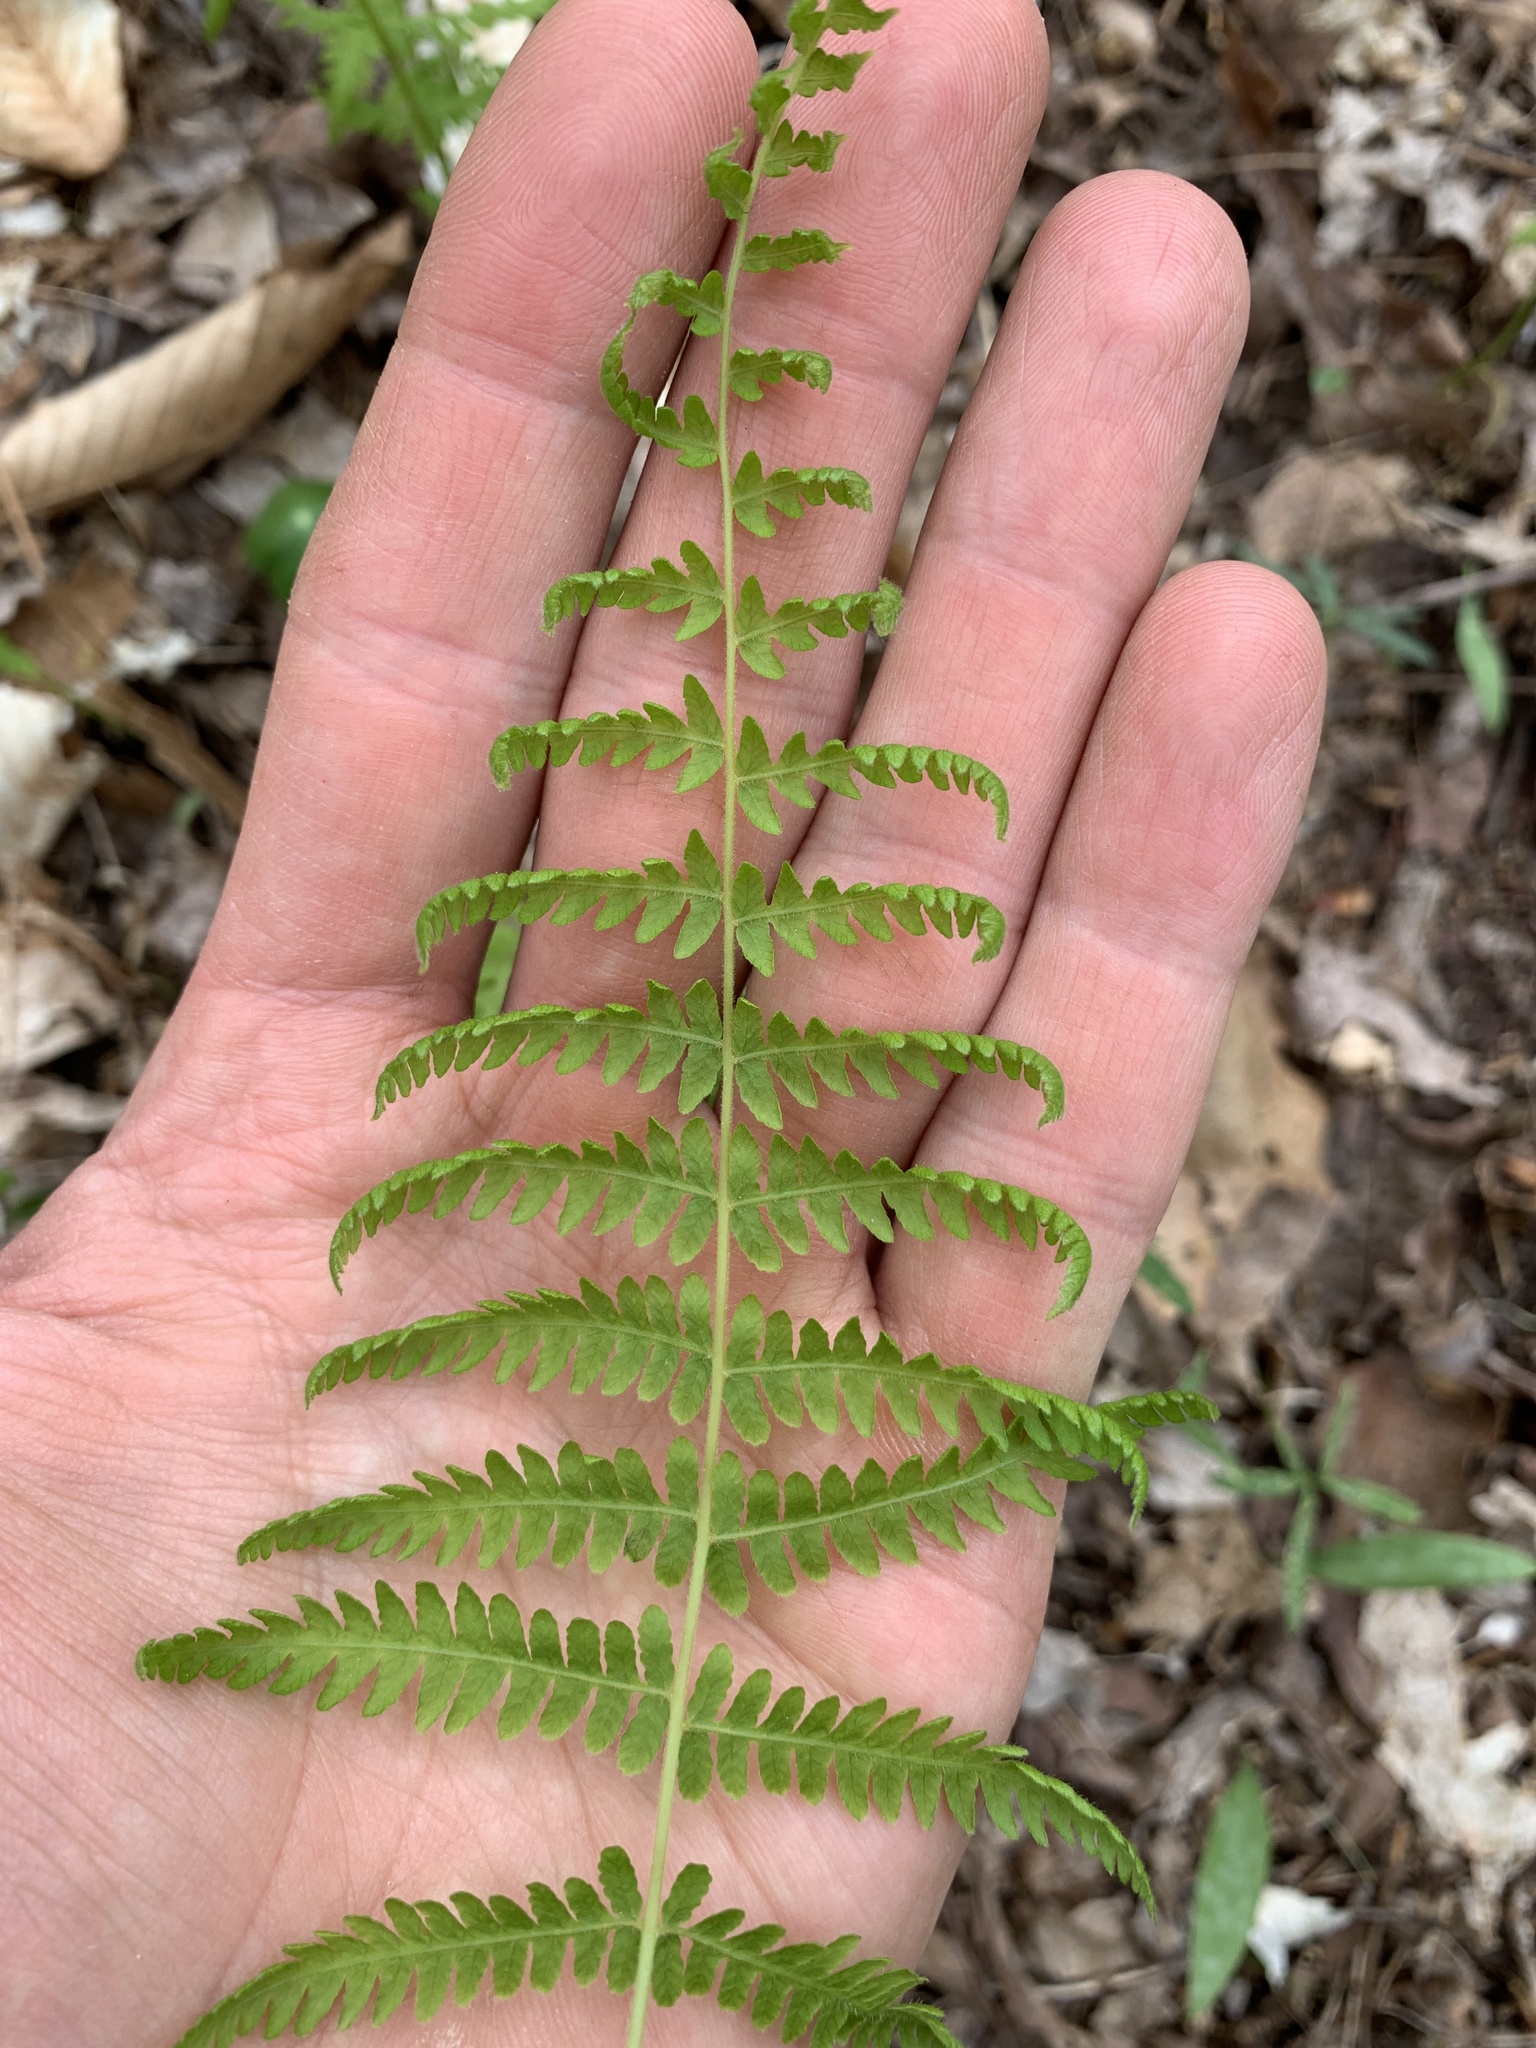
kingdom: Plantae
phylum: Tracheophyta
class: Polypodiopsida
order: Polypodiales
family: Thelypteridaceae
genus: Amauropelta
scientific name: Amauropelta noveboracensis
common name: New york fern
